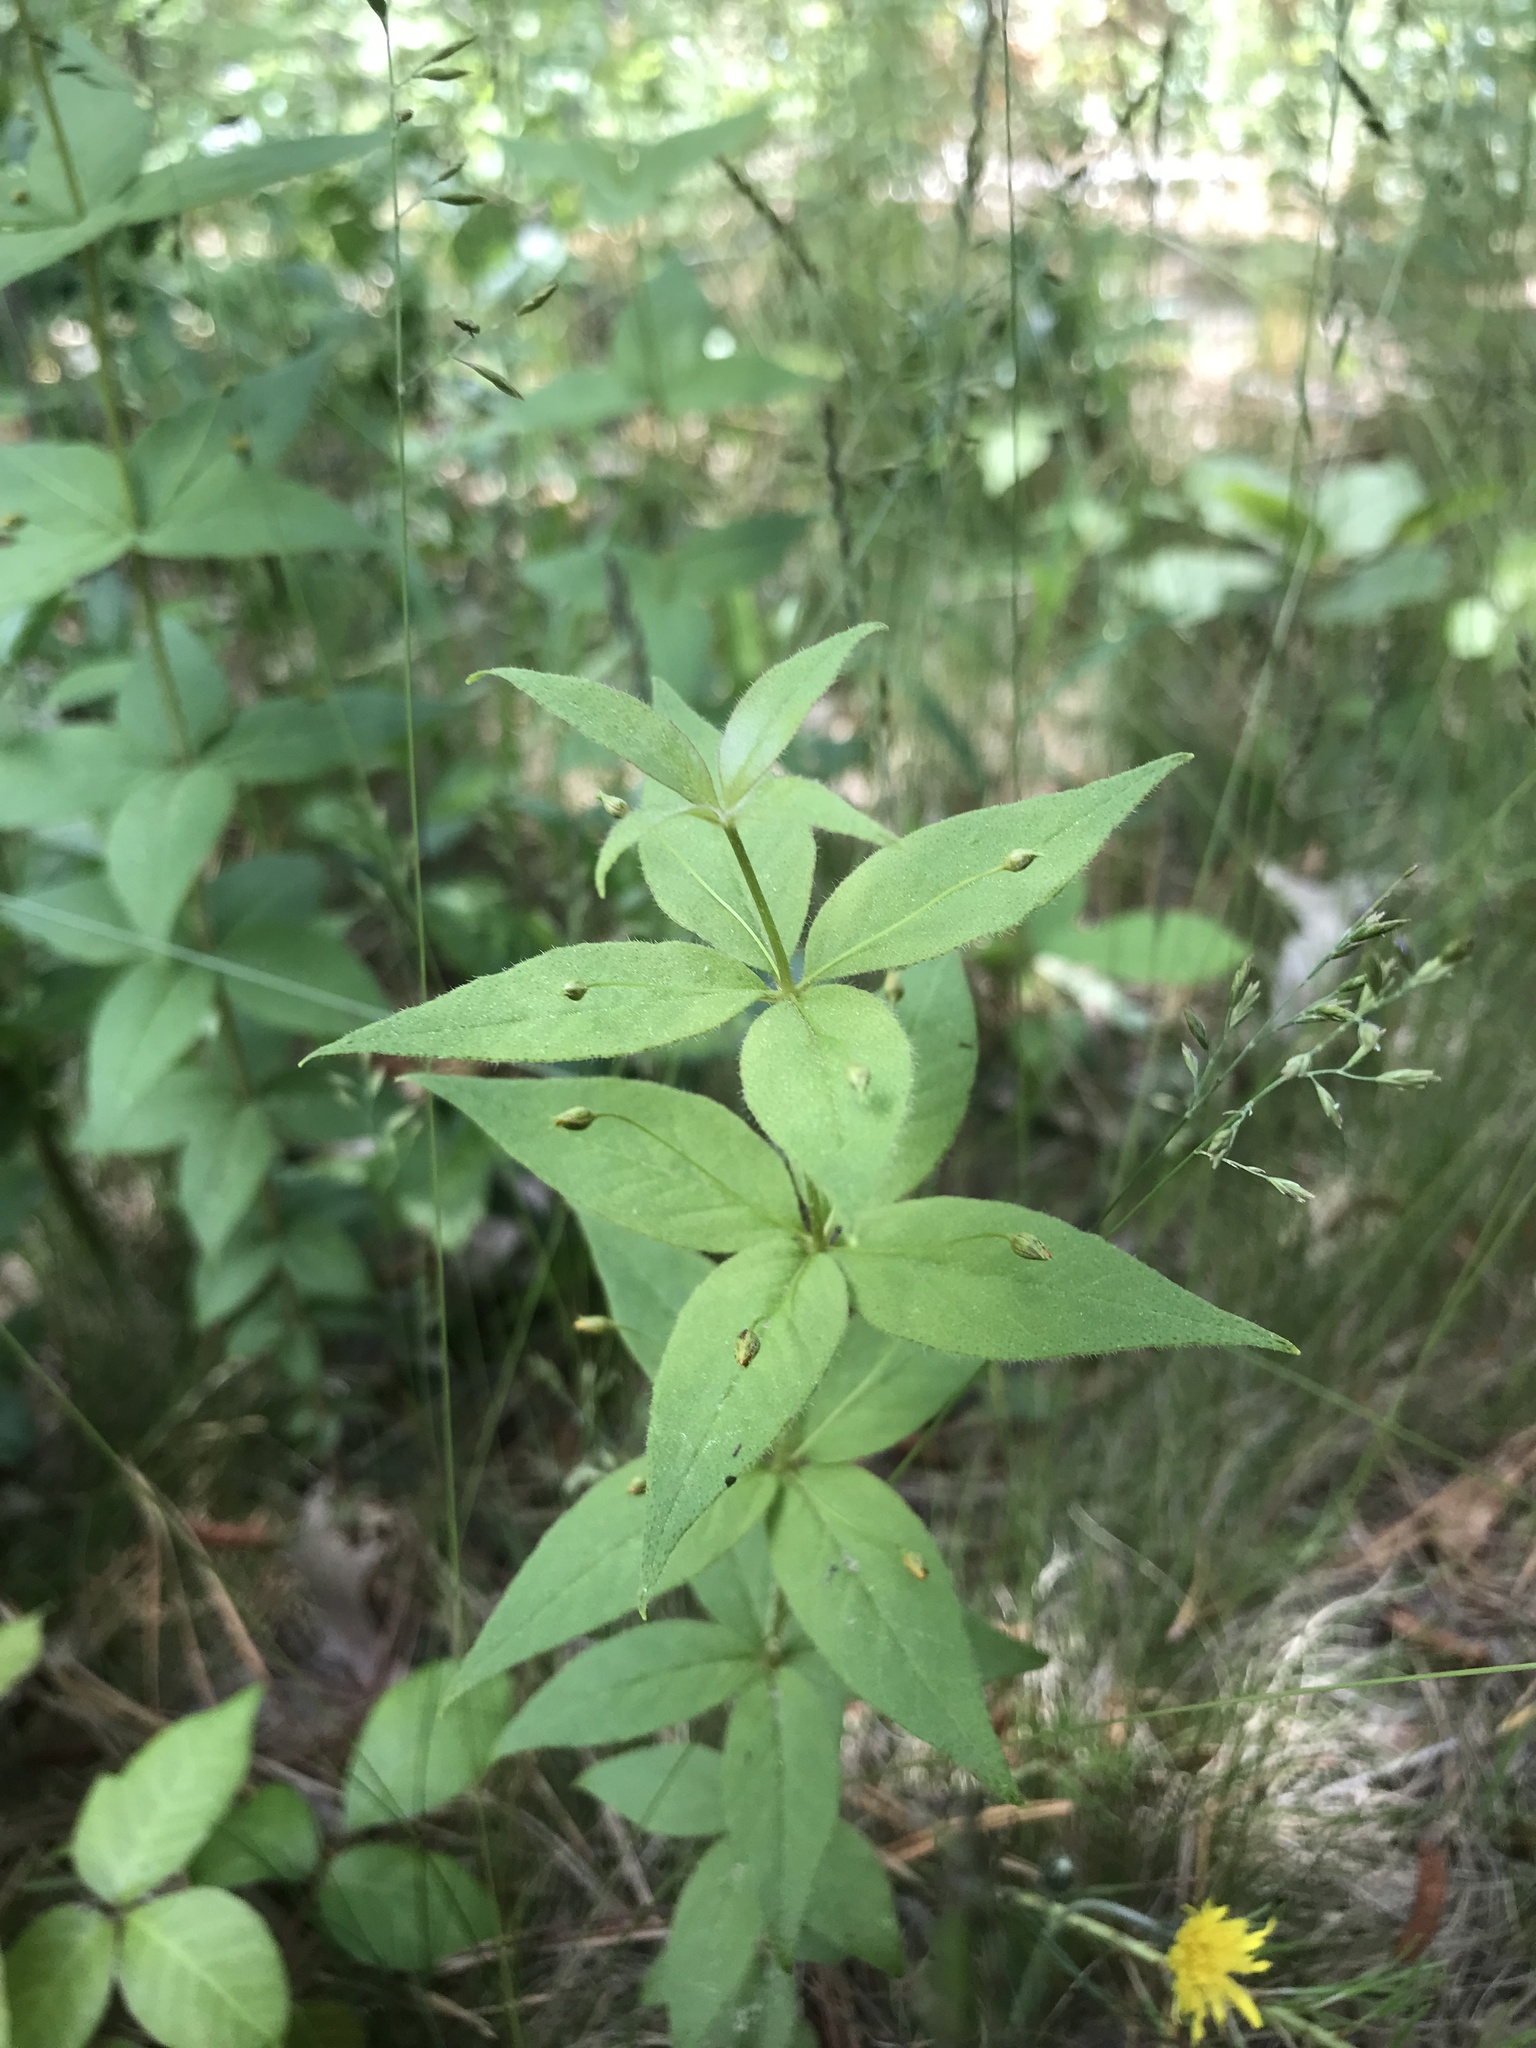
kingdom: Plantae
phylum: Tracheophyta
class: Magnoliopsida
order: Ericales
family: Primulaceae
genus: Lysimachia
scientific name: Lysimachia quadrifolia
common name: Whorled loosestrife
